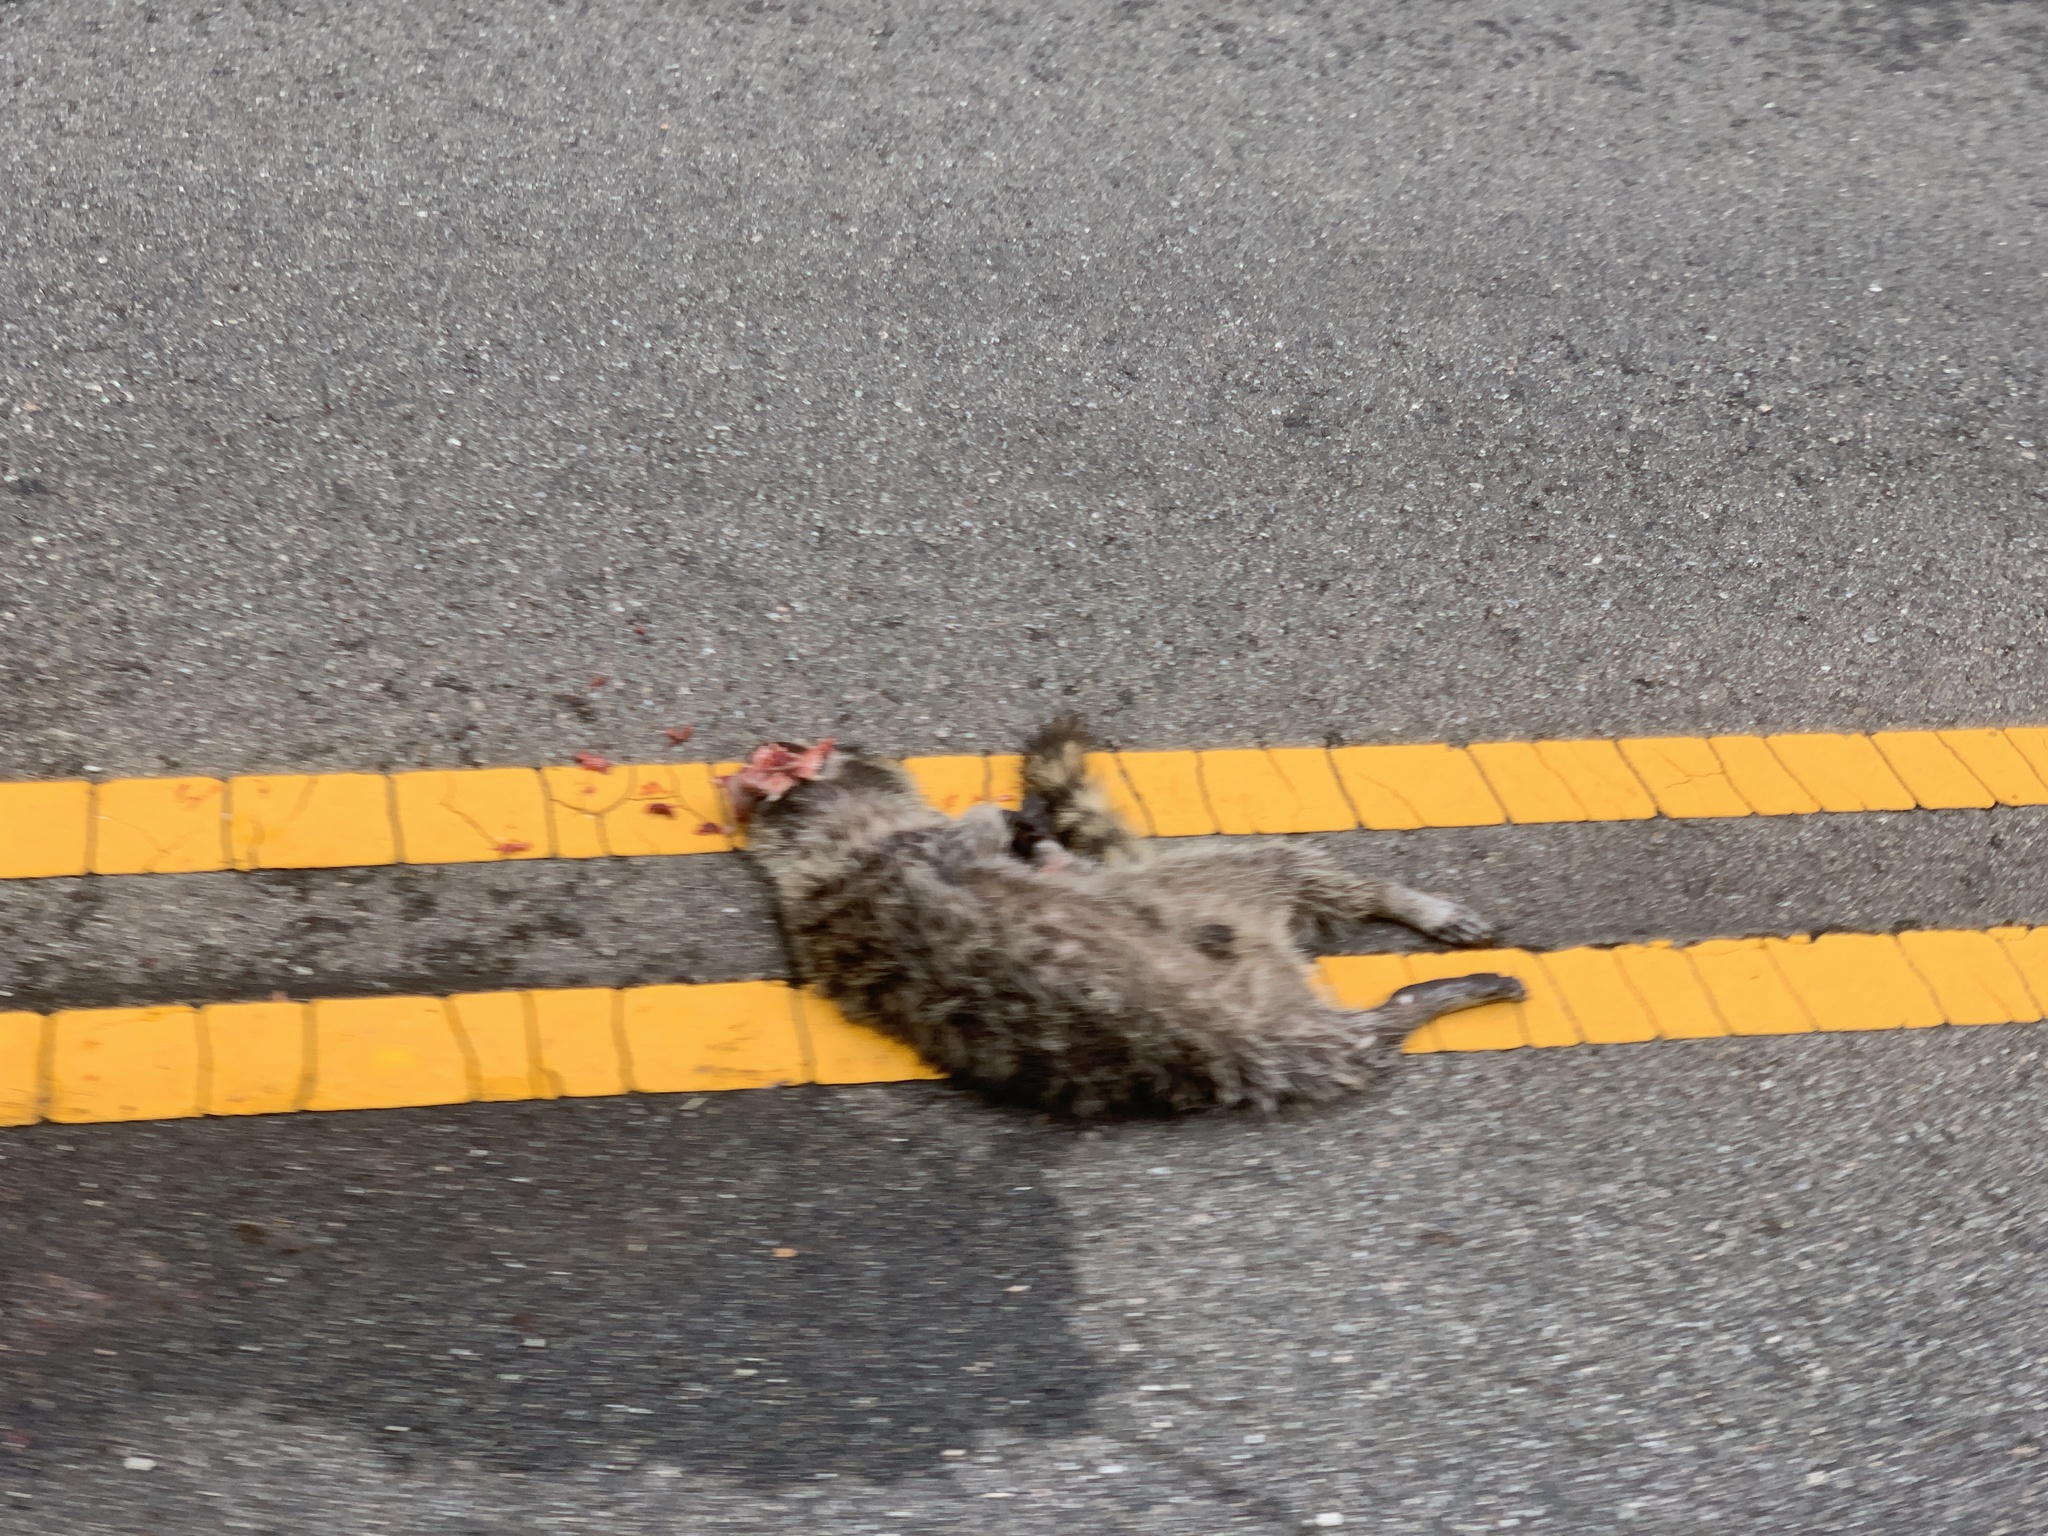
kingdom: Animalia
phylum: Chordata
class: Mammalia
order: Carnivora
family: Procyonidae
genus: Procyon
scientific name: Procyon lotor
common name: Raccoon
